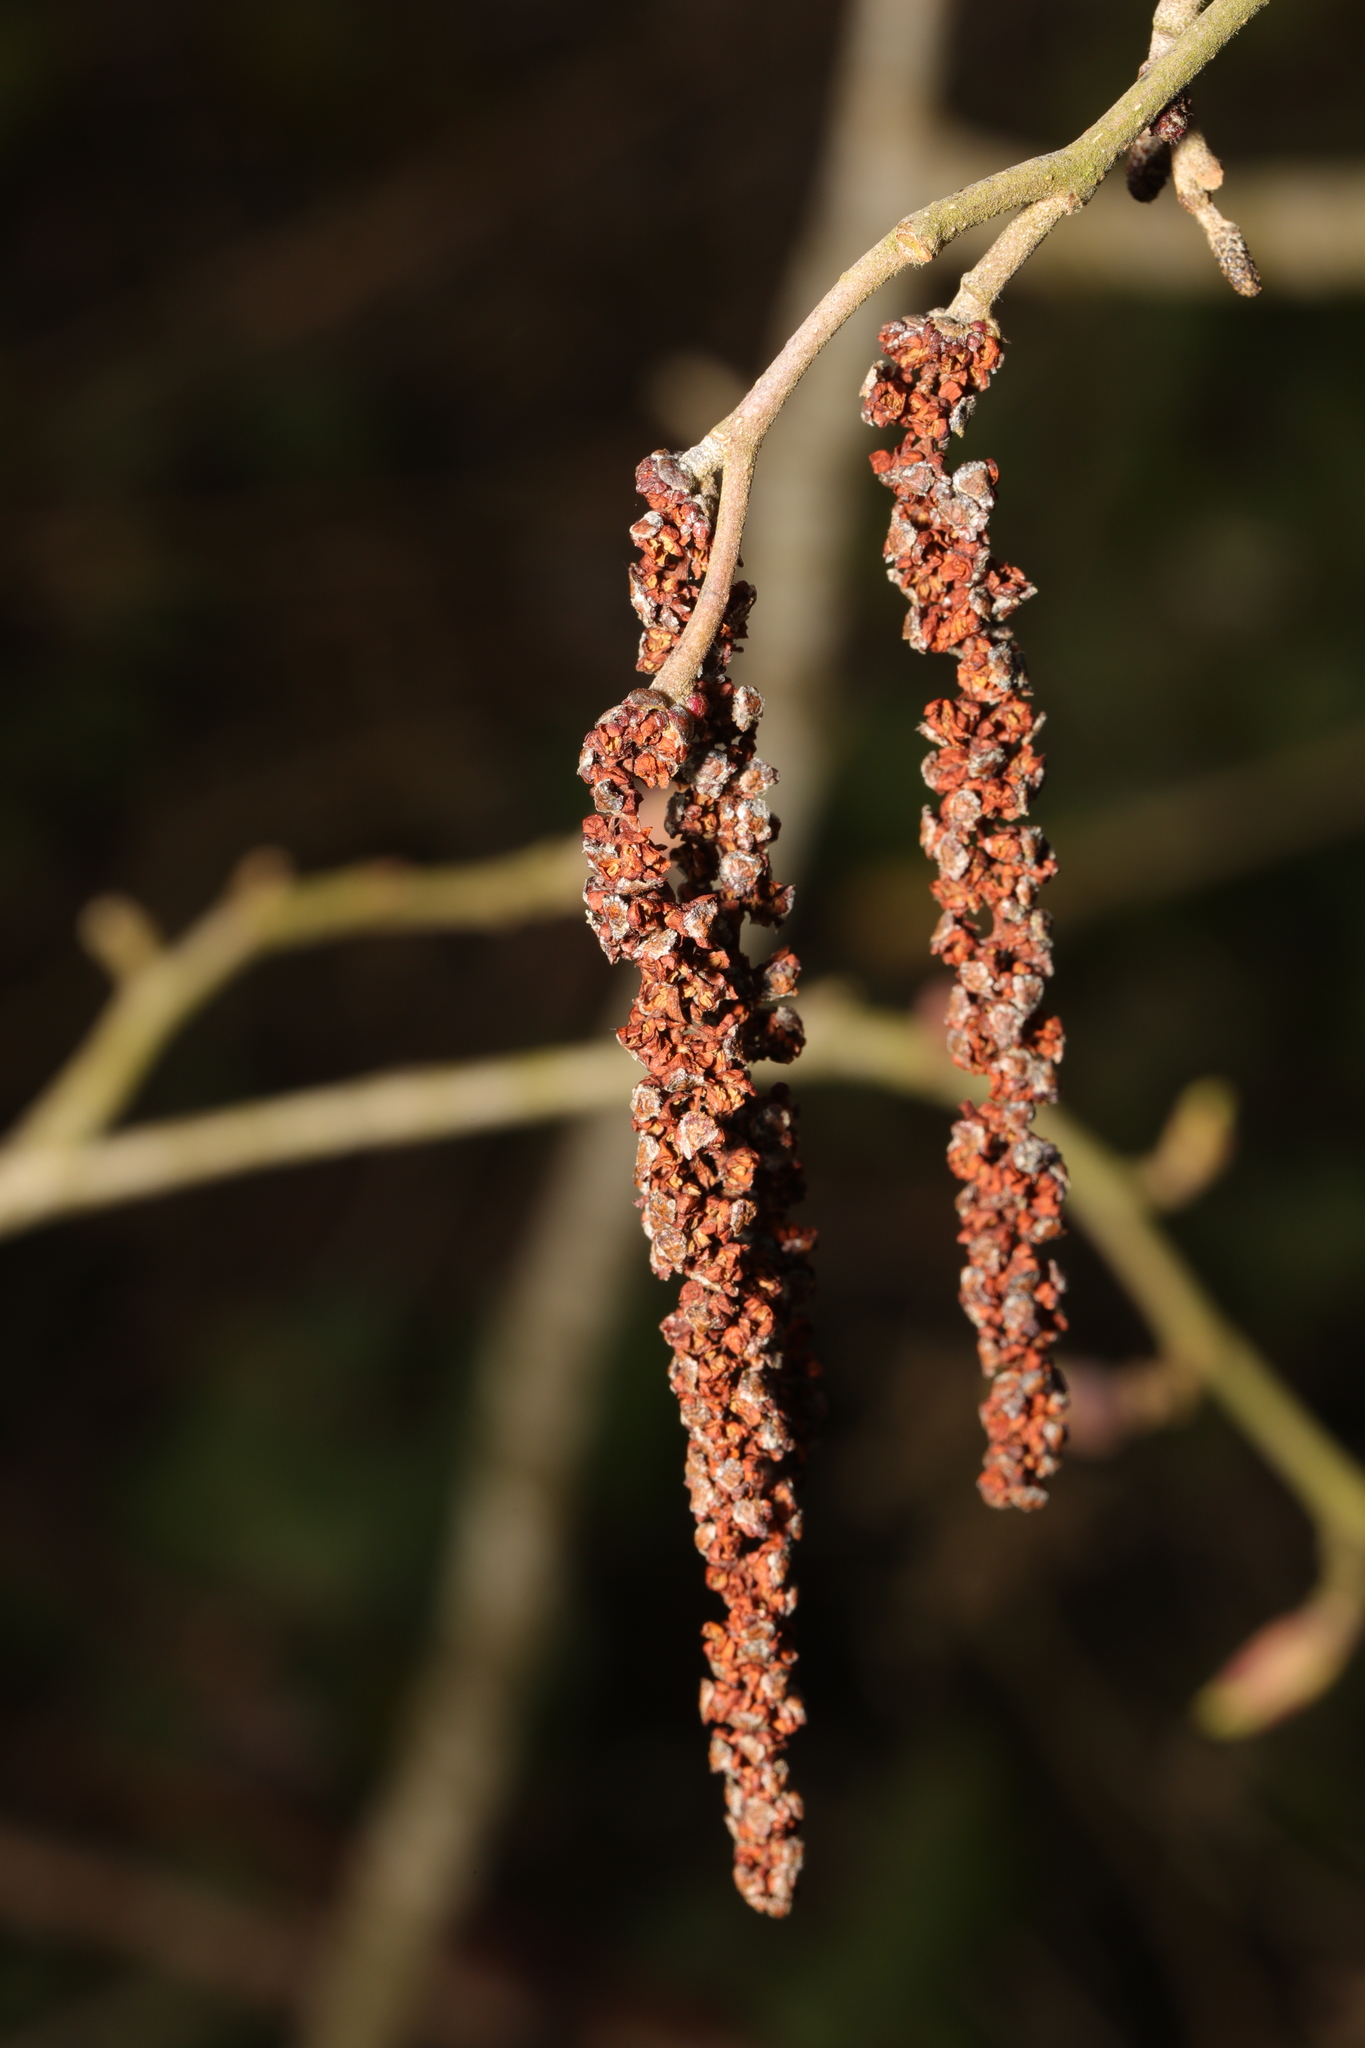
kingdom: Plantae
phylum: Tracheophyta
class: Magnoliopsida
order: Fagales
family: Betulaceae
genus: Alnus
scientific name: Alnus glutinosa
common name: Black alder
